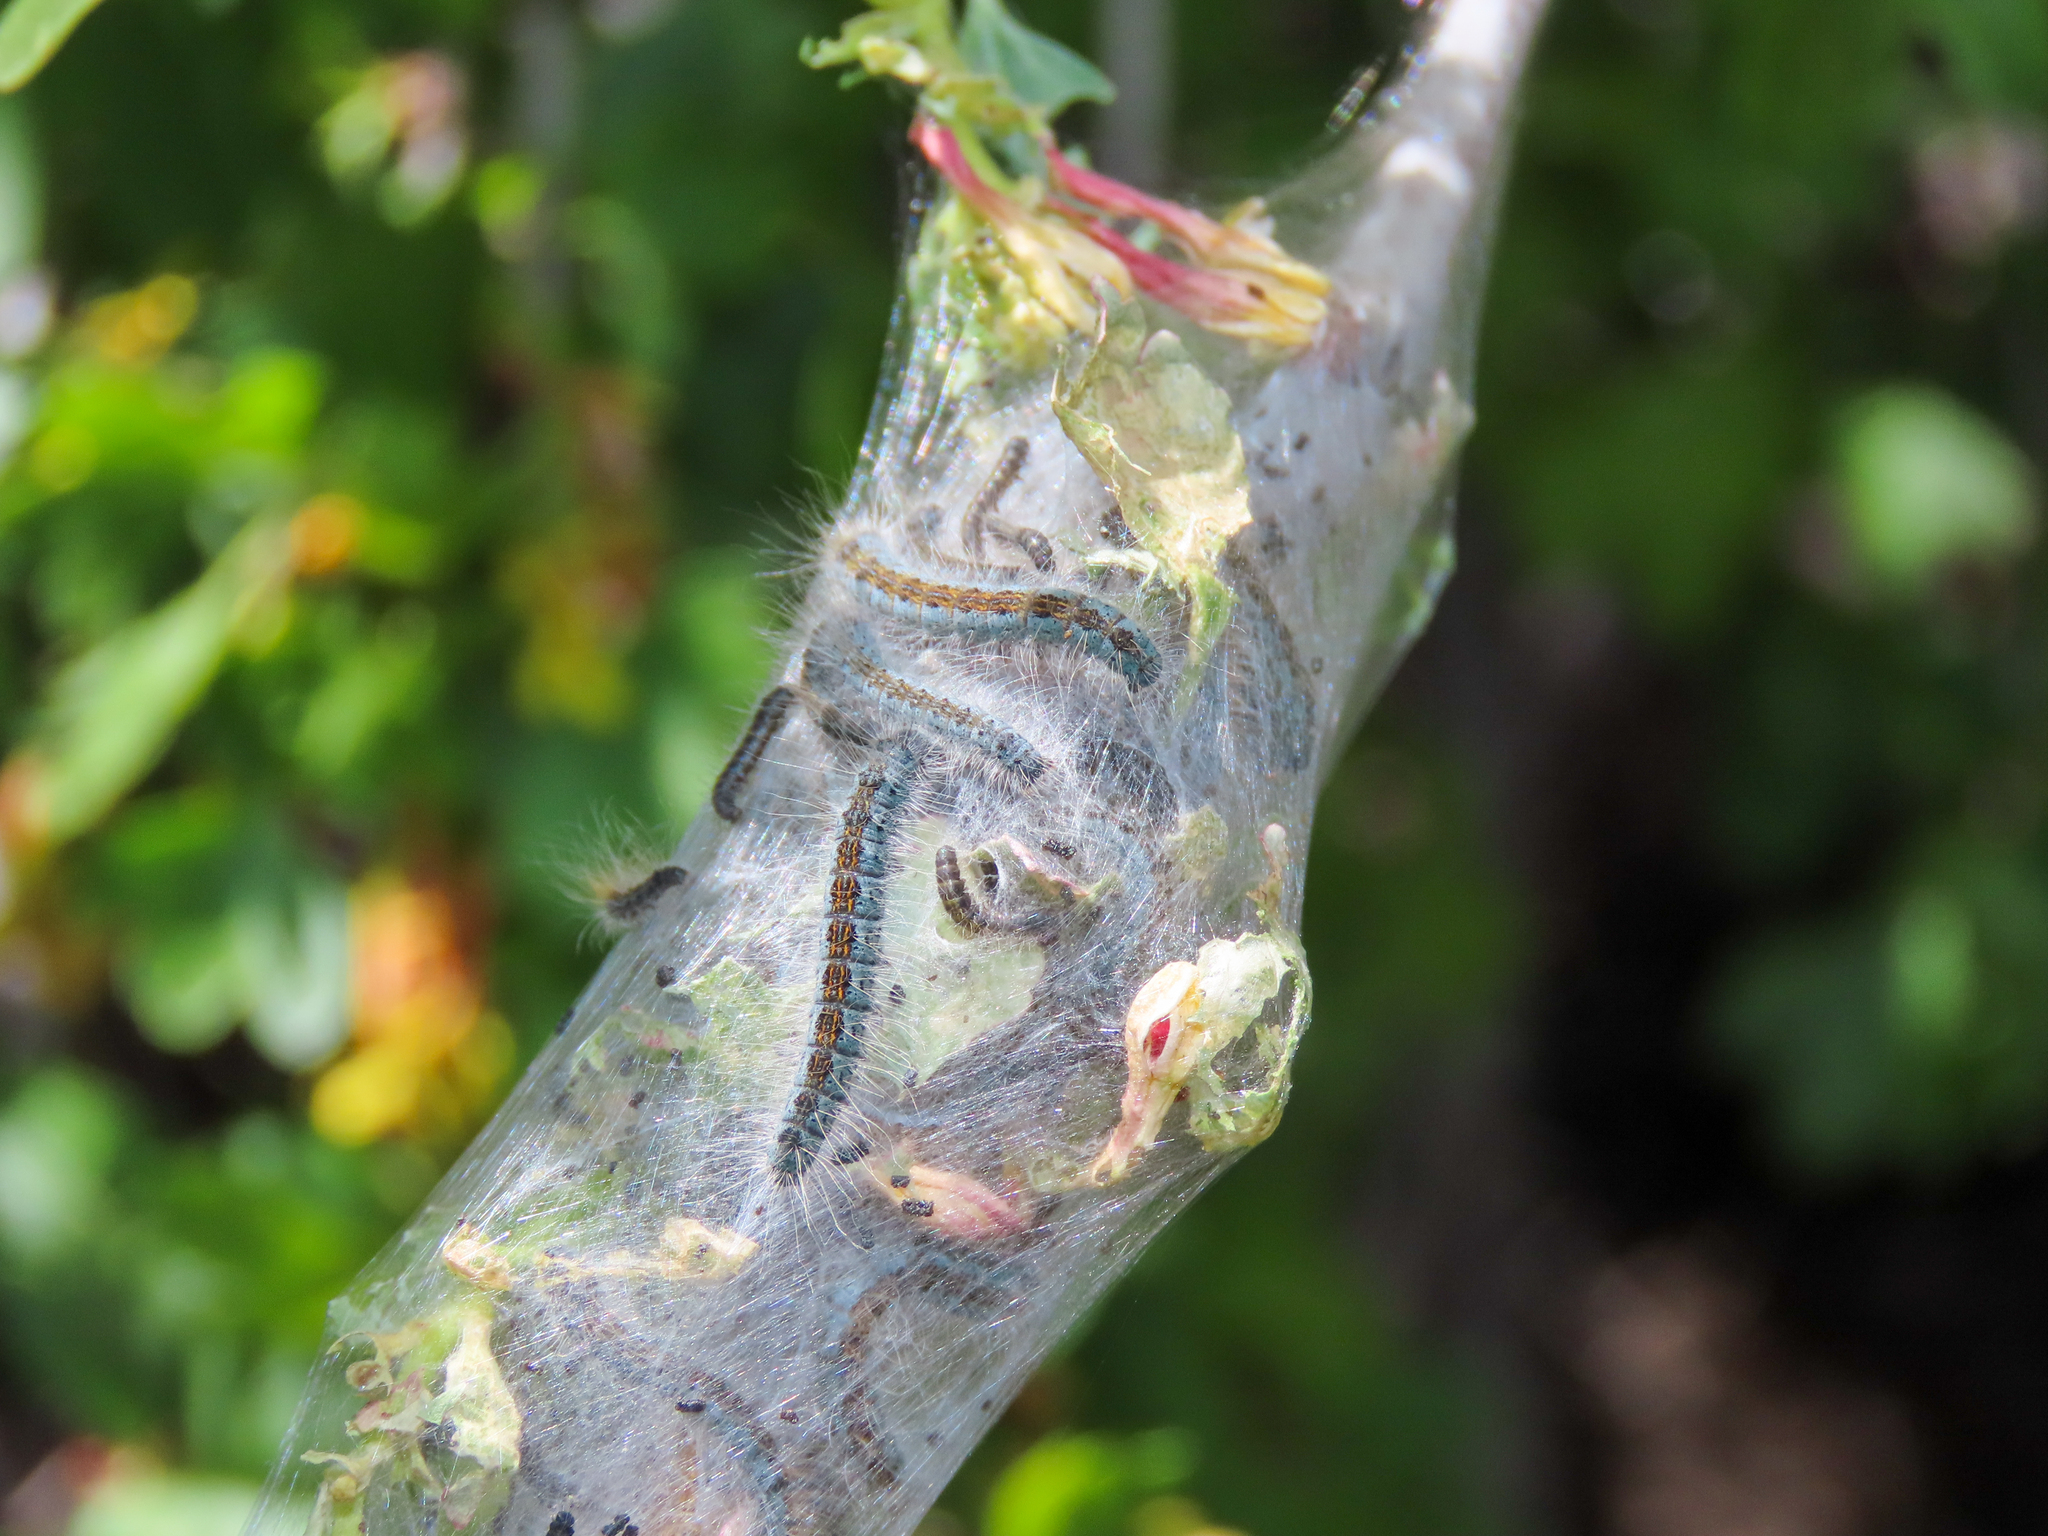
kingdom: Animalia
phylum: Arthropoda
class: Insecta
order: Lepidoptera
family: Lasiocampidae
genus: Malacosoma
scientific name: Malacosoma incurva
